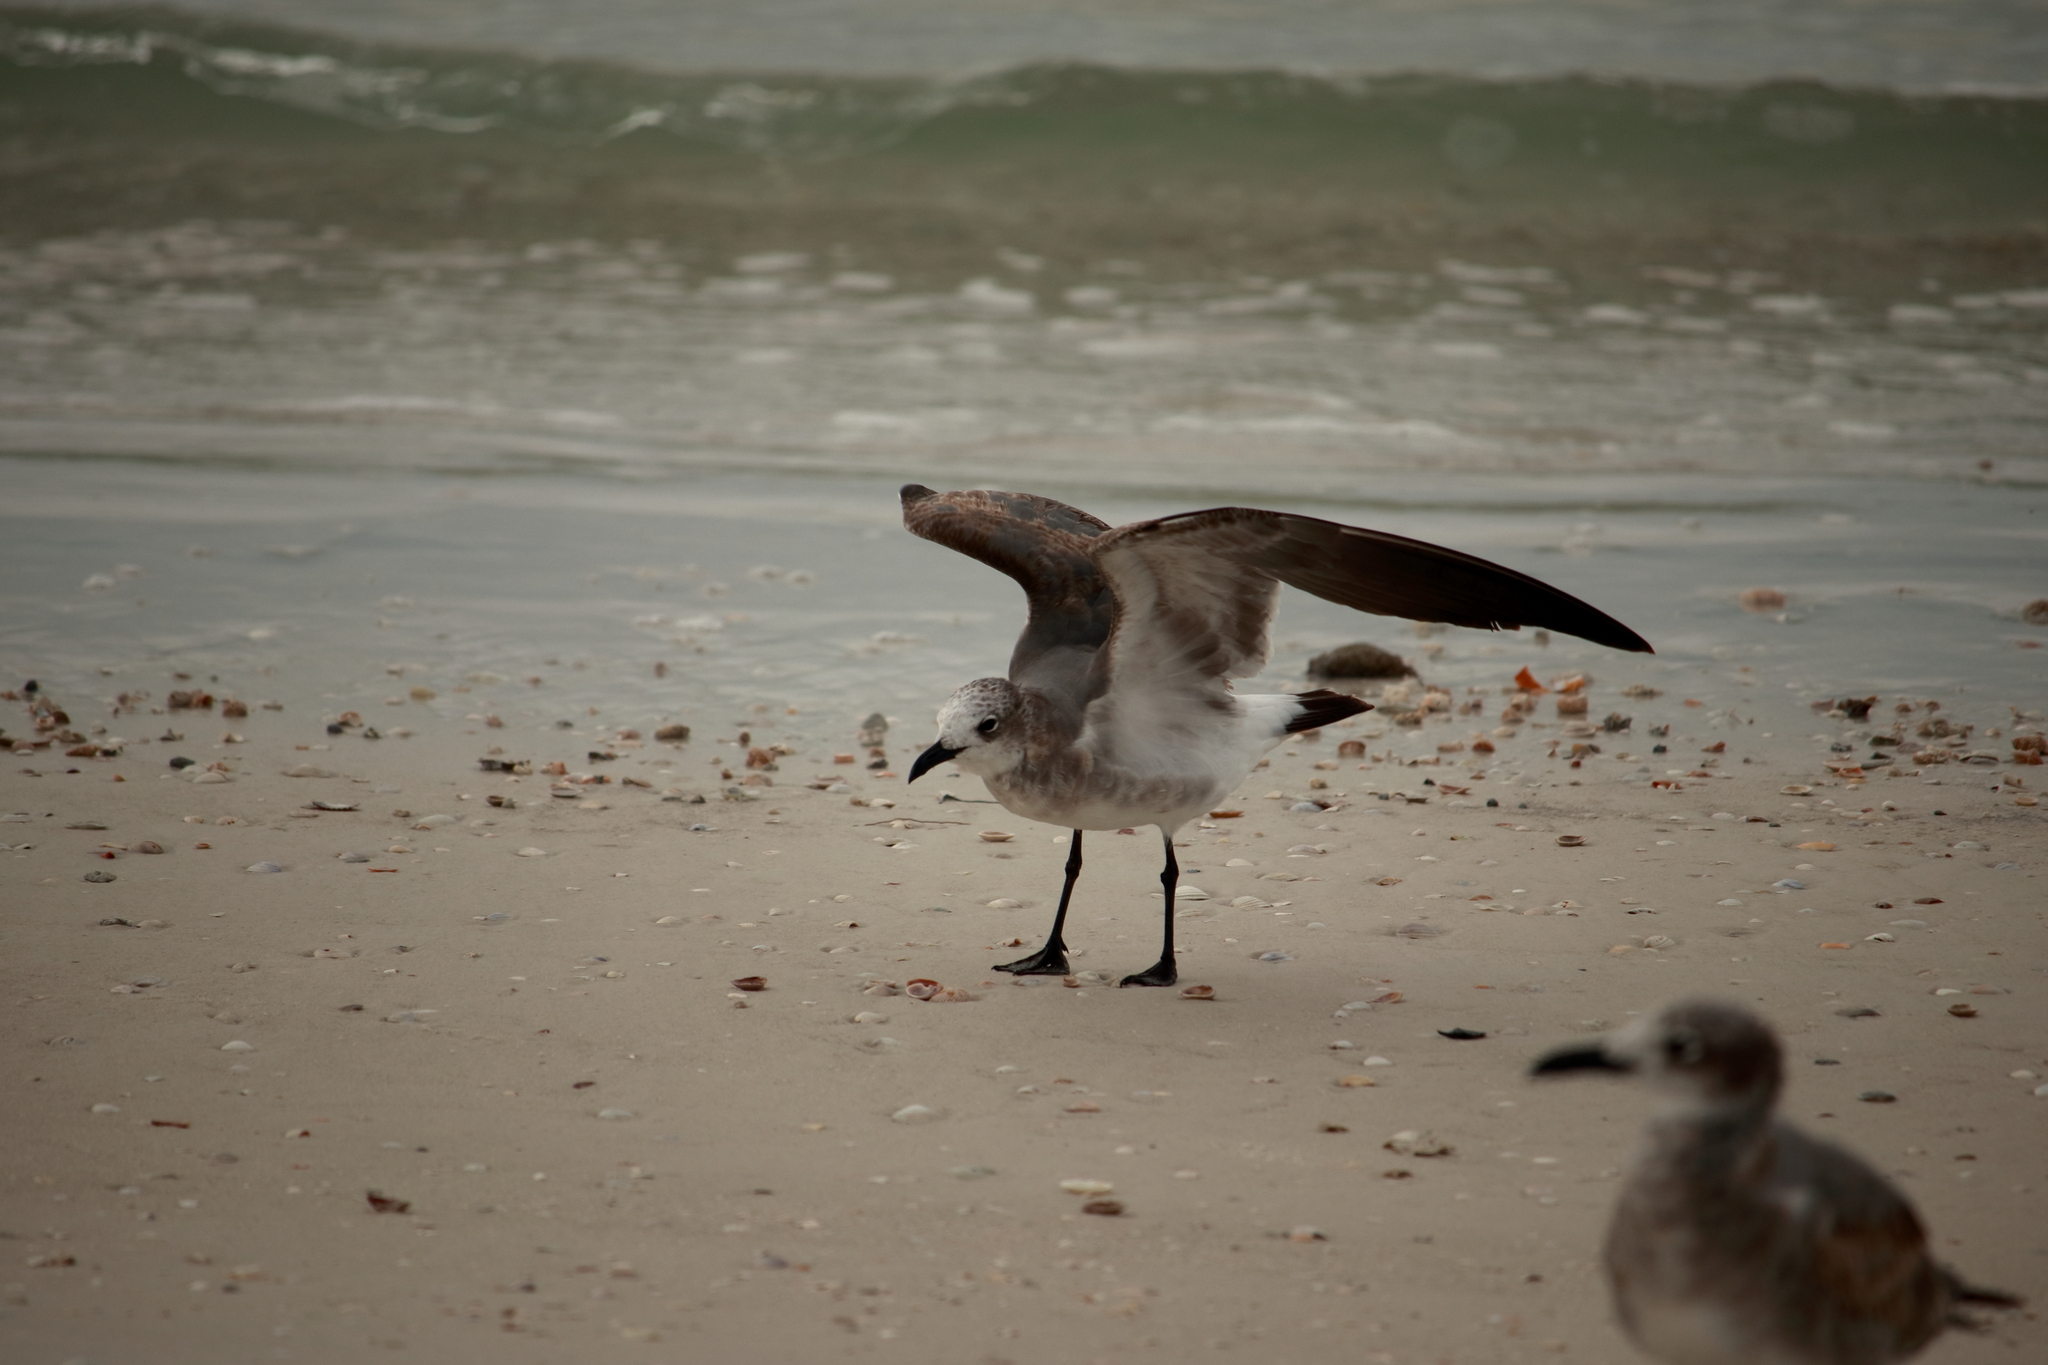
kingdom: Animalia
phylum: Chordata
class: Aves
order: Charadriiformes
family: Laridae
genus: Leucophaeus
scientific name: Leucophaeus atricilla
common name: Laughing gull
